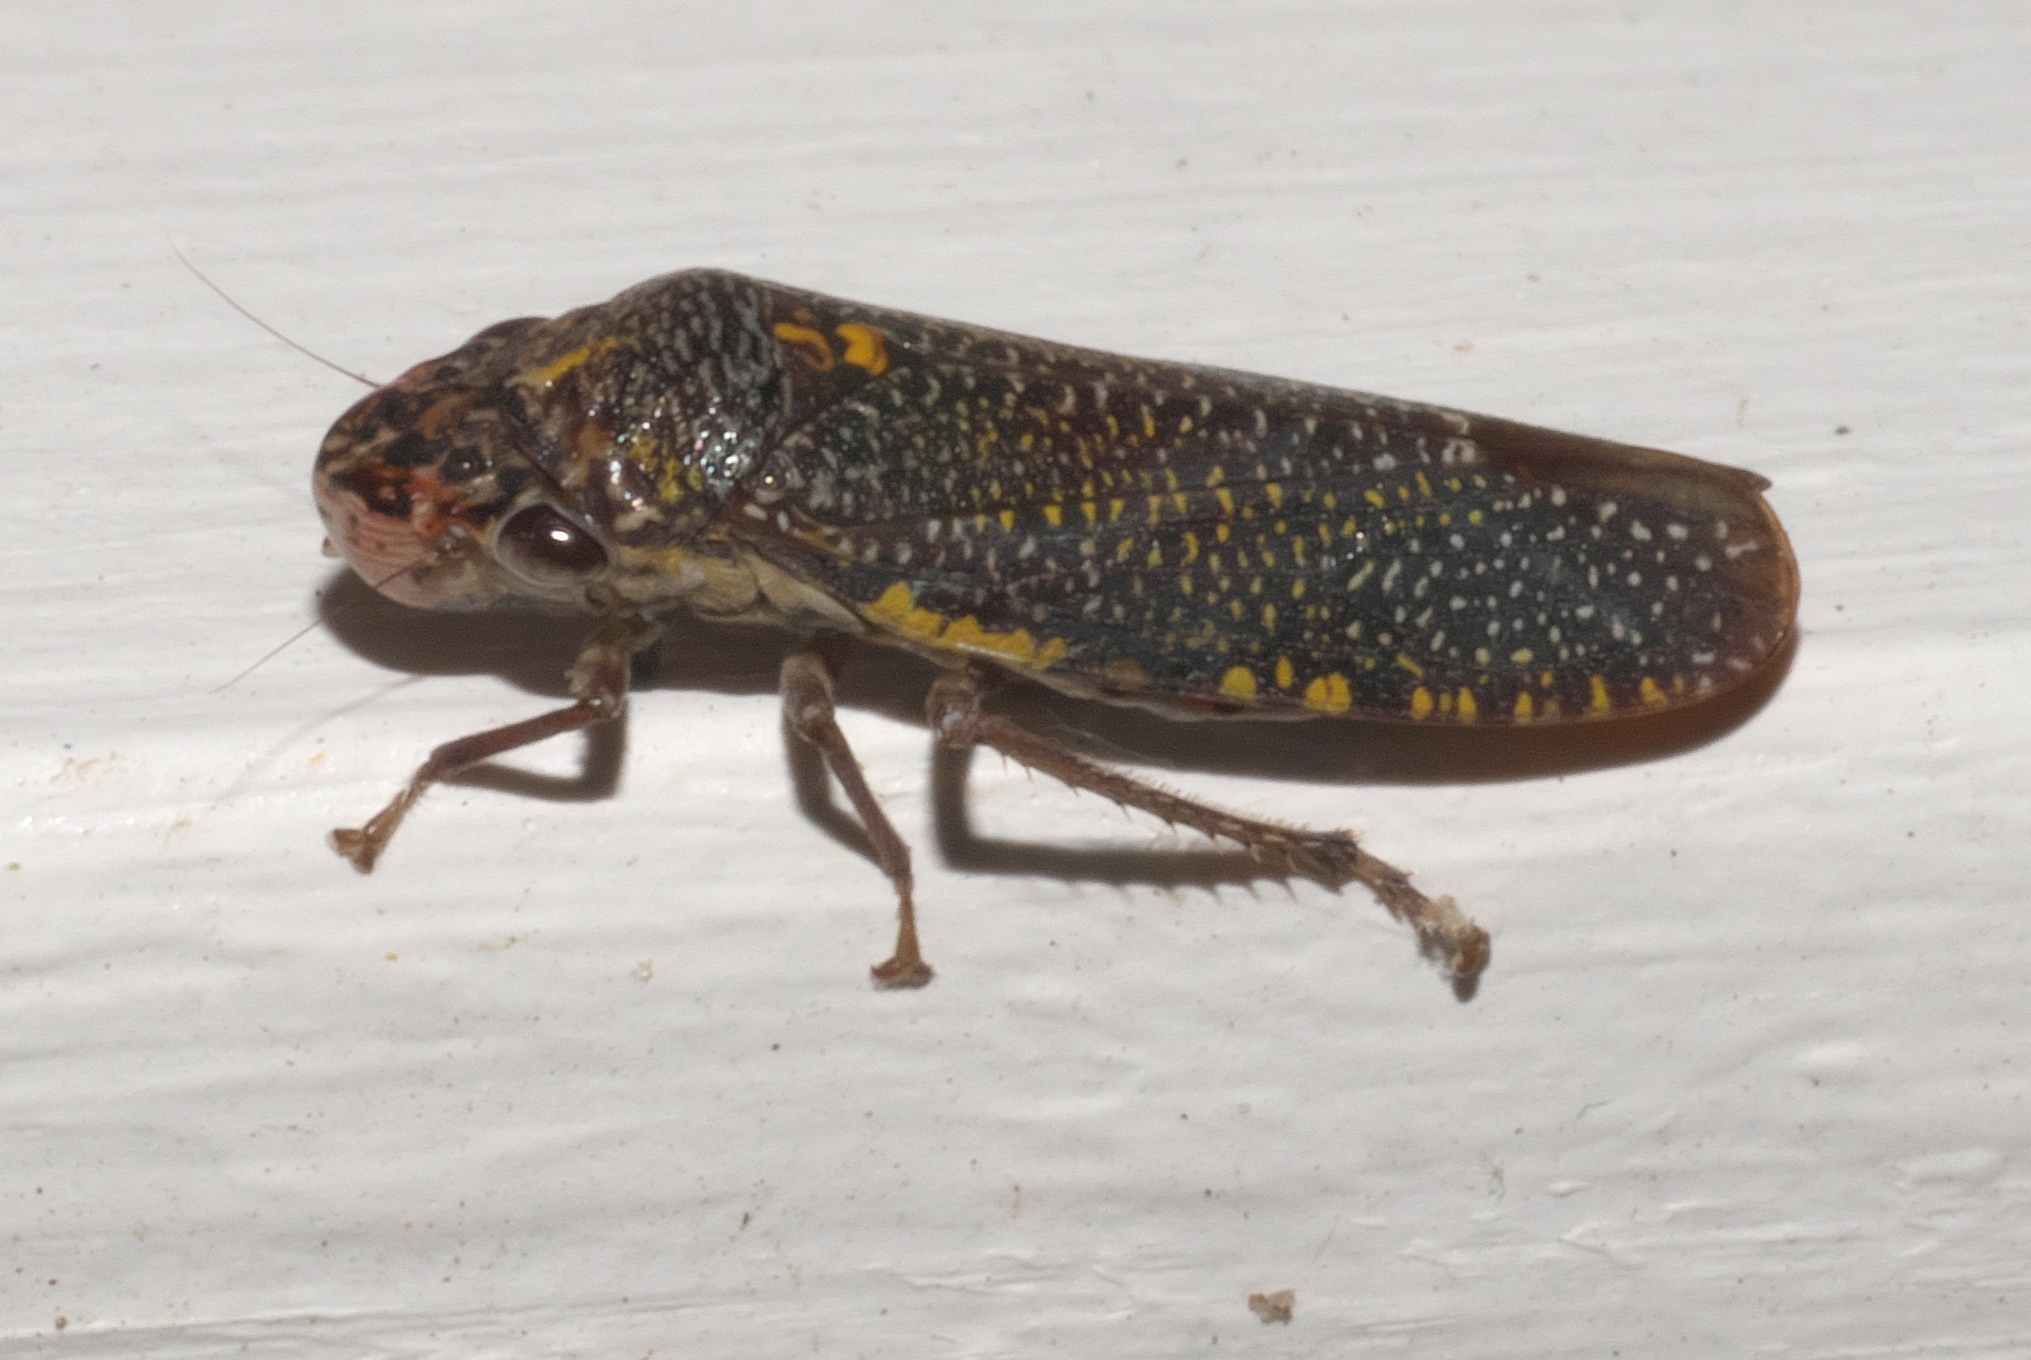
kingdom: Animalia
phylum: Arthropoda
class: Insecta
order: Hemiptera
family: Cicadellidae
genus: Paraulacizes
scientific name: Paraulacizes irrorata
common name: Speckled sharpshooter
